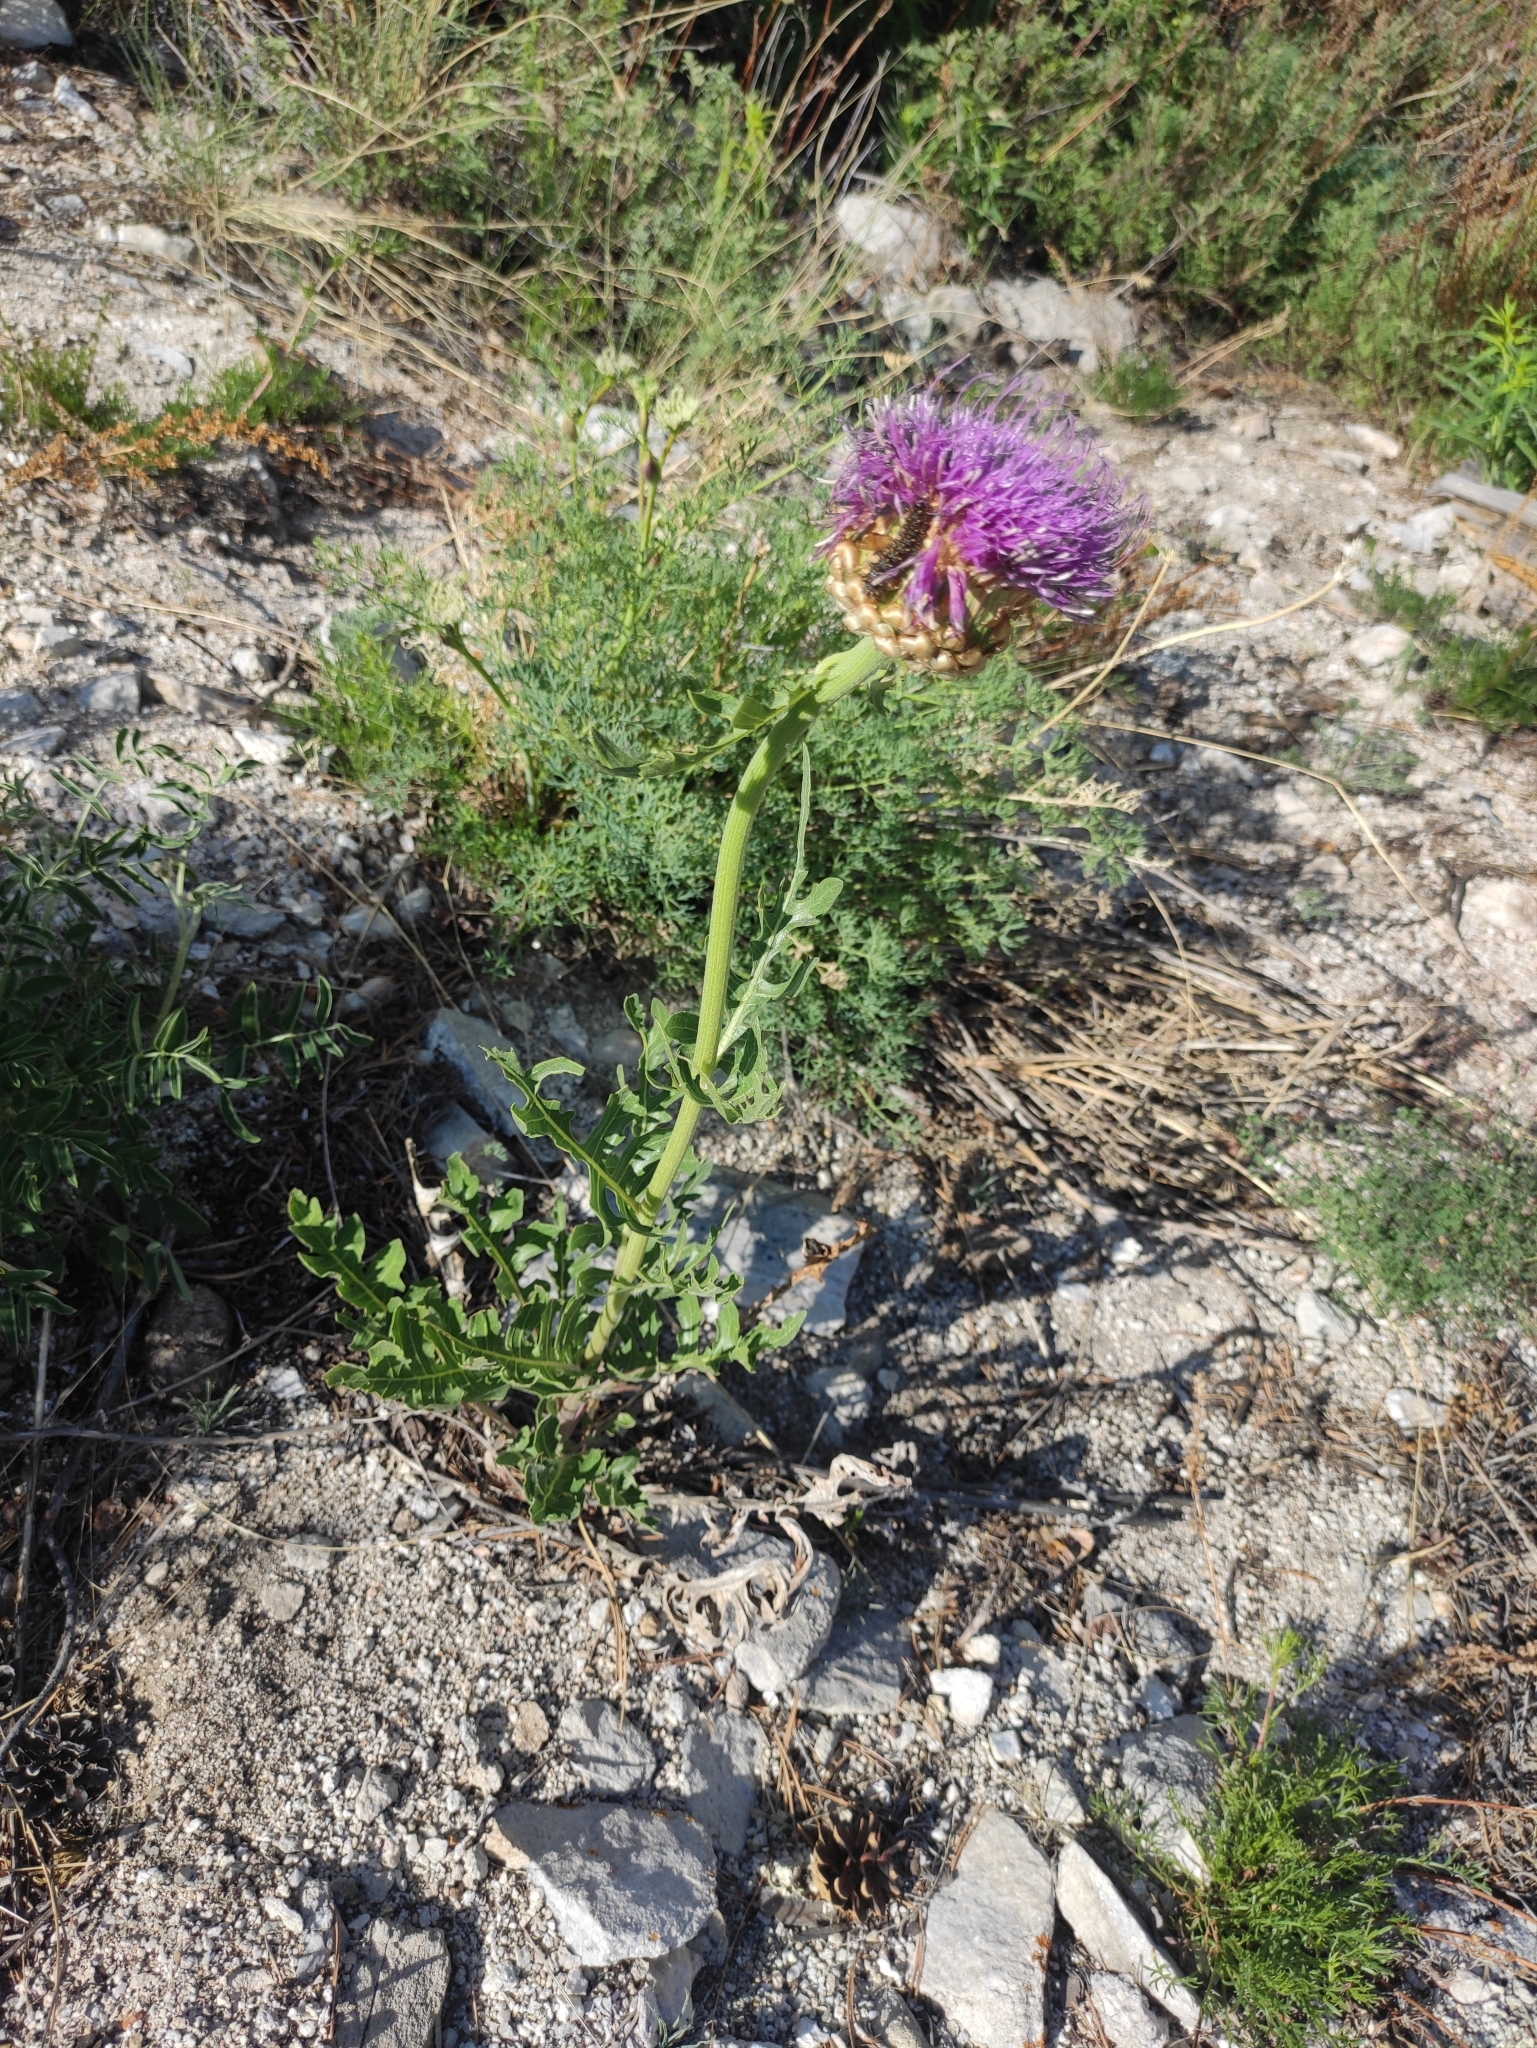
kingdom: Plantae
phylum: Tracheophyta
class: Magnoliopsida
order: Asterales
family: Asteraceae
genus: Leuzea
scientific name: Leuzea uniflora
